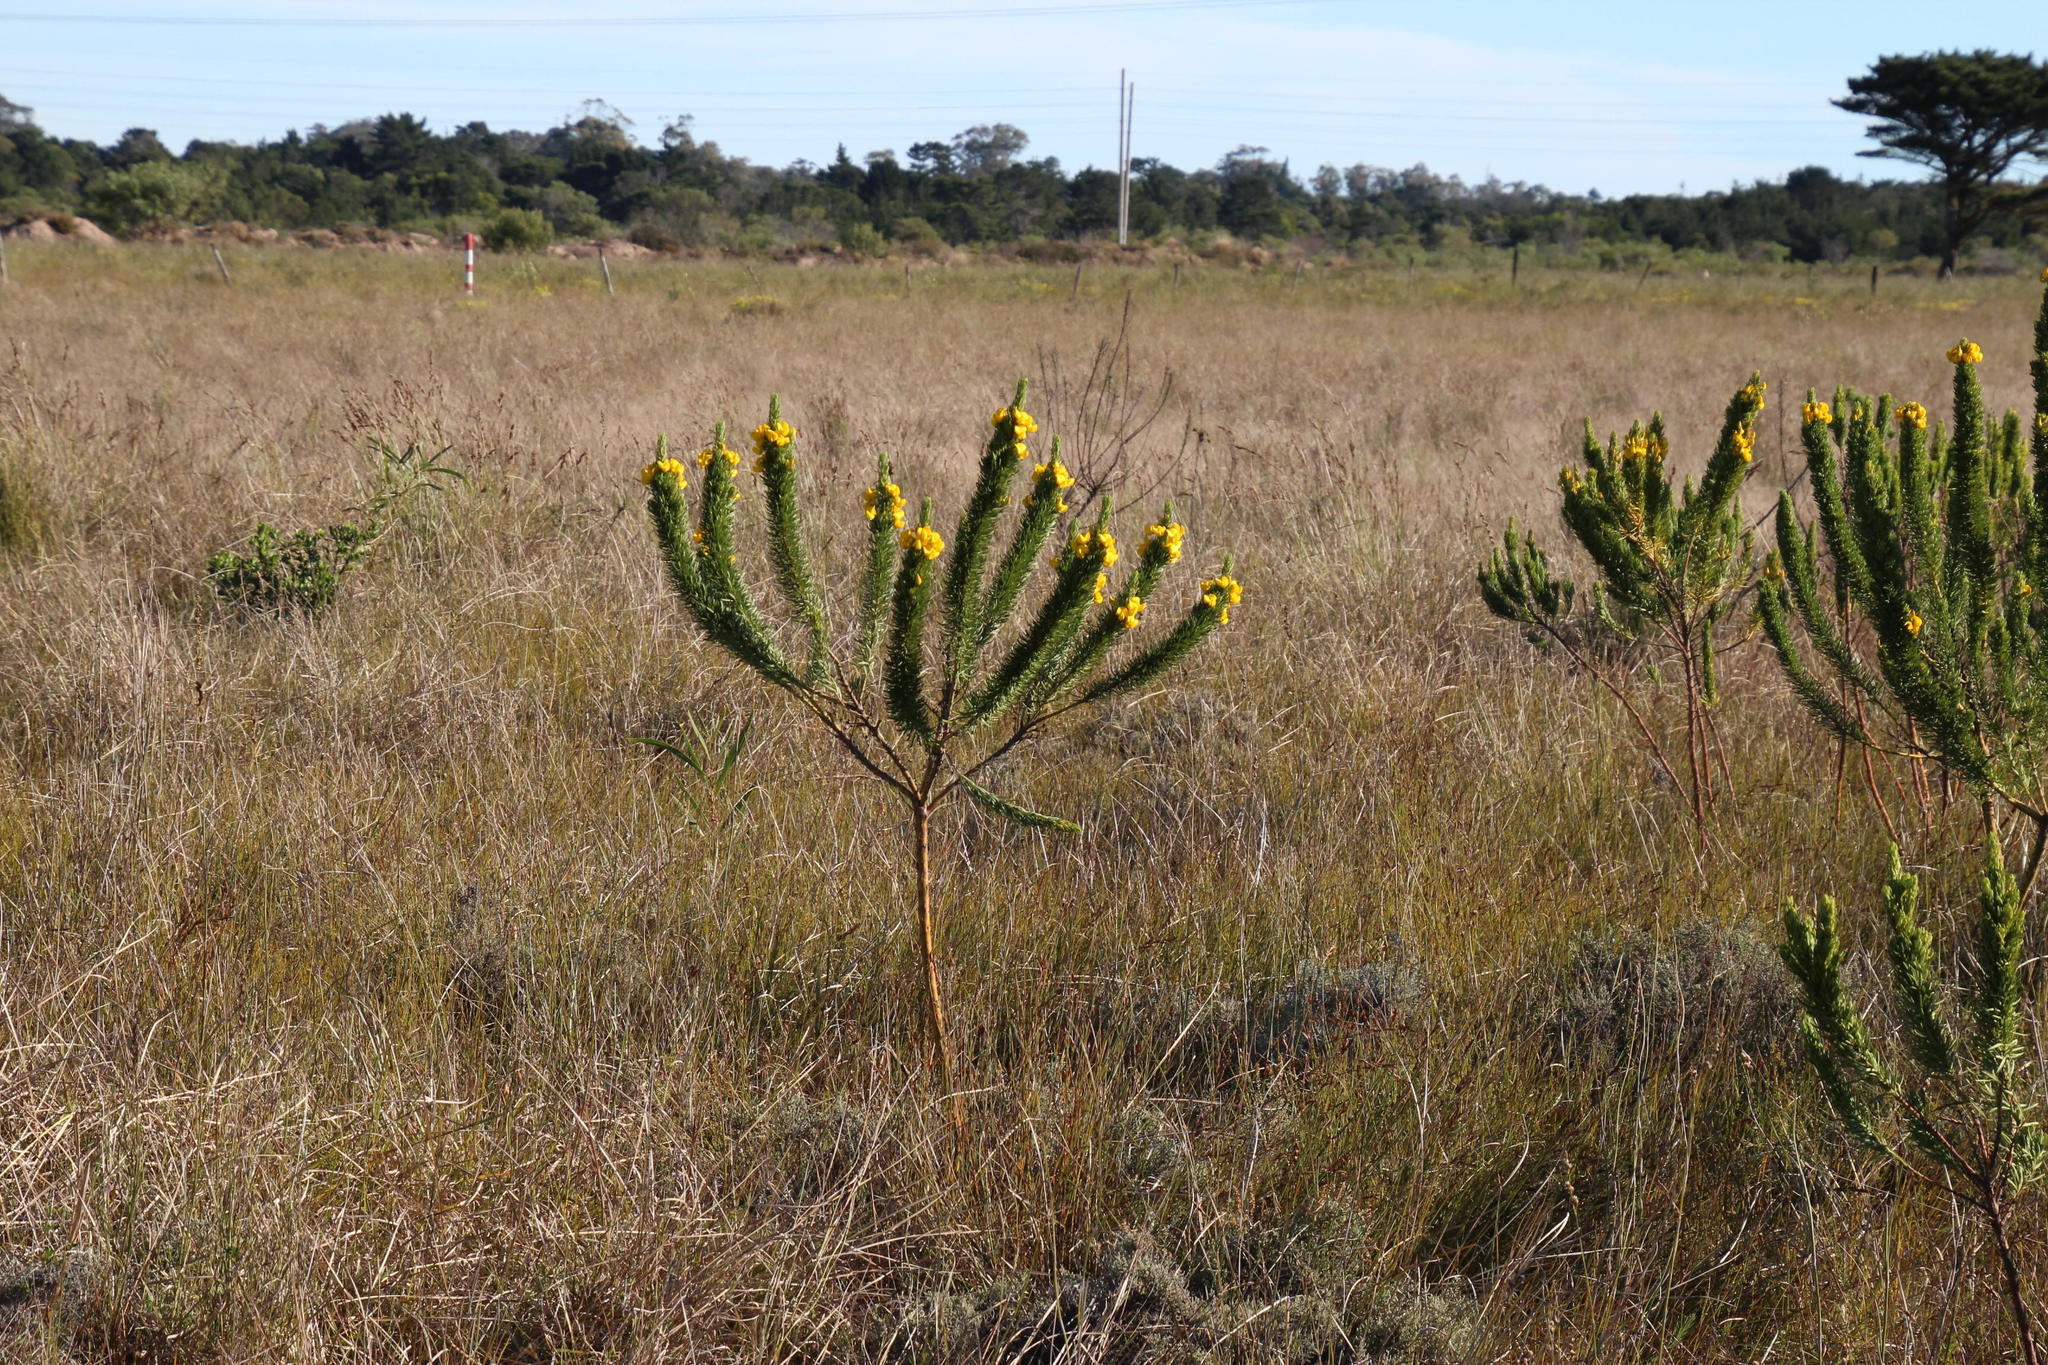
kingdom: Plantae
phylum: Tracheophyta
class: Magnoliopsida
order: Fabales
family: Fabaceae
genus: Cyclopia
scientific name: Cyclopia pubescens
